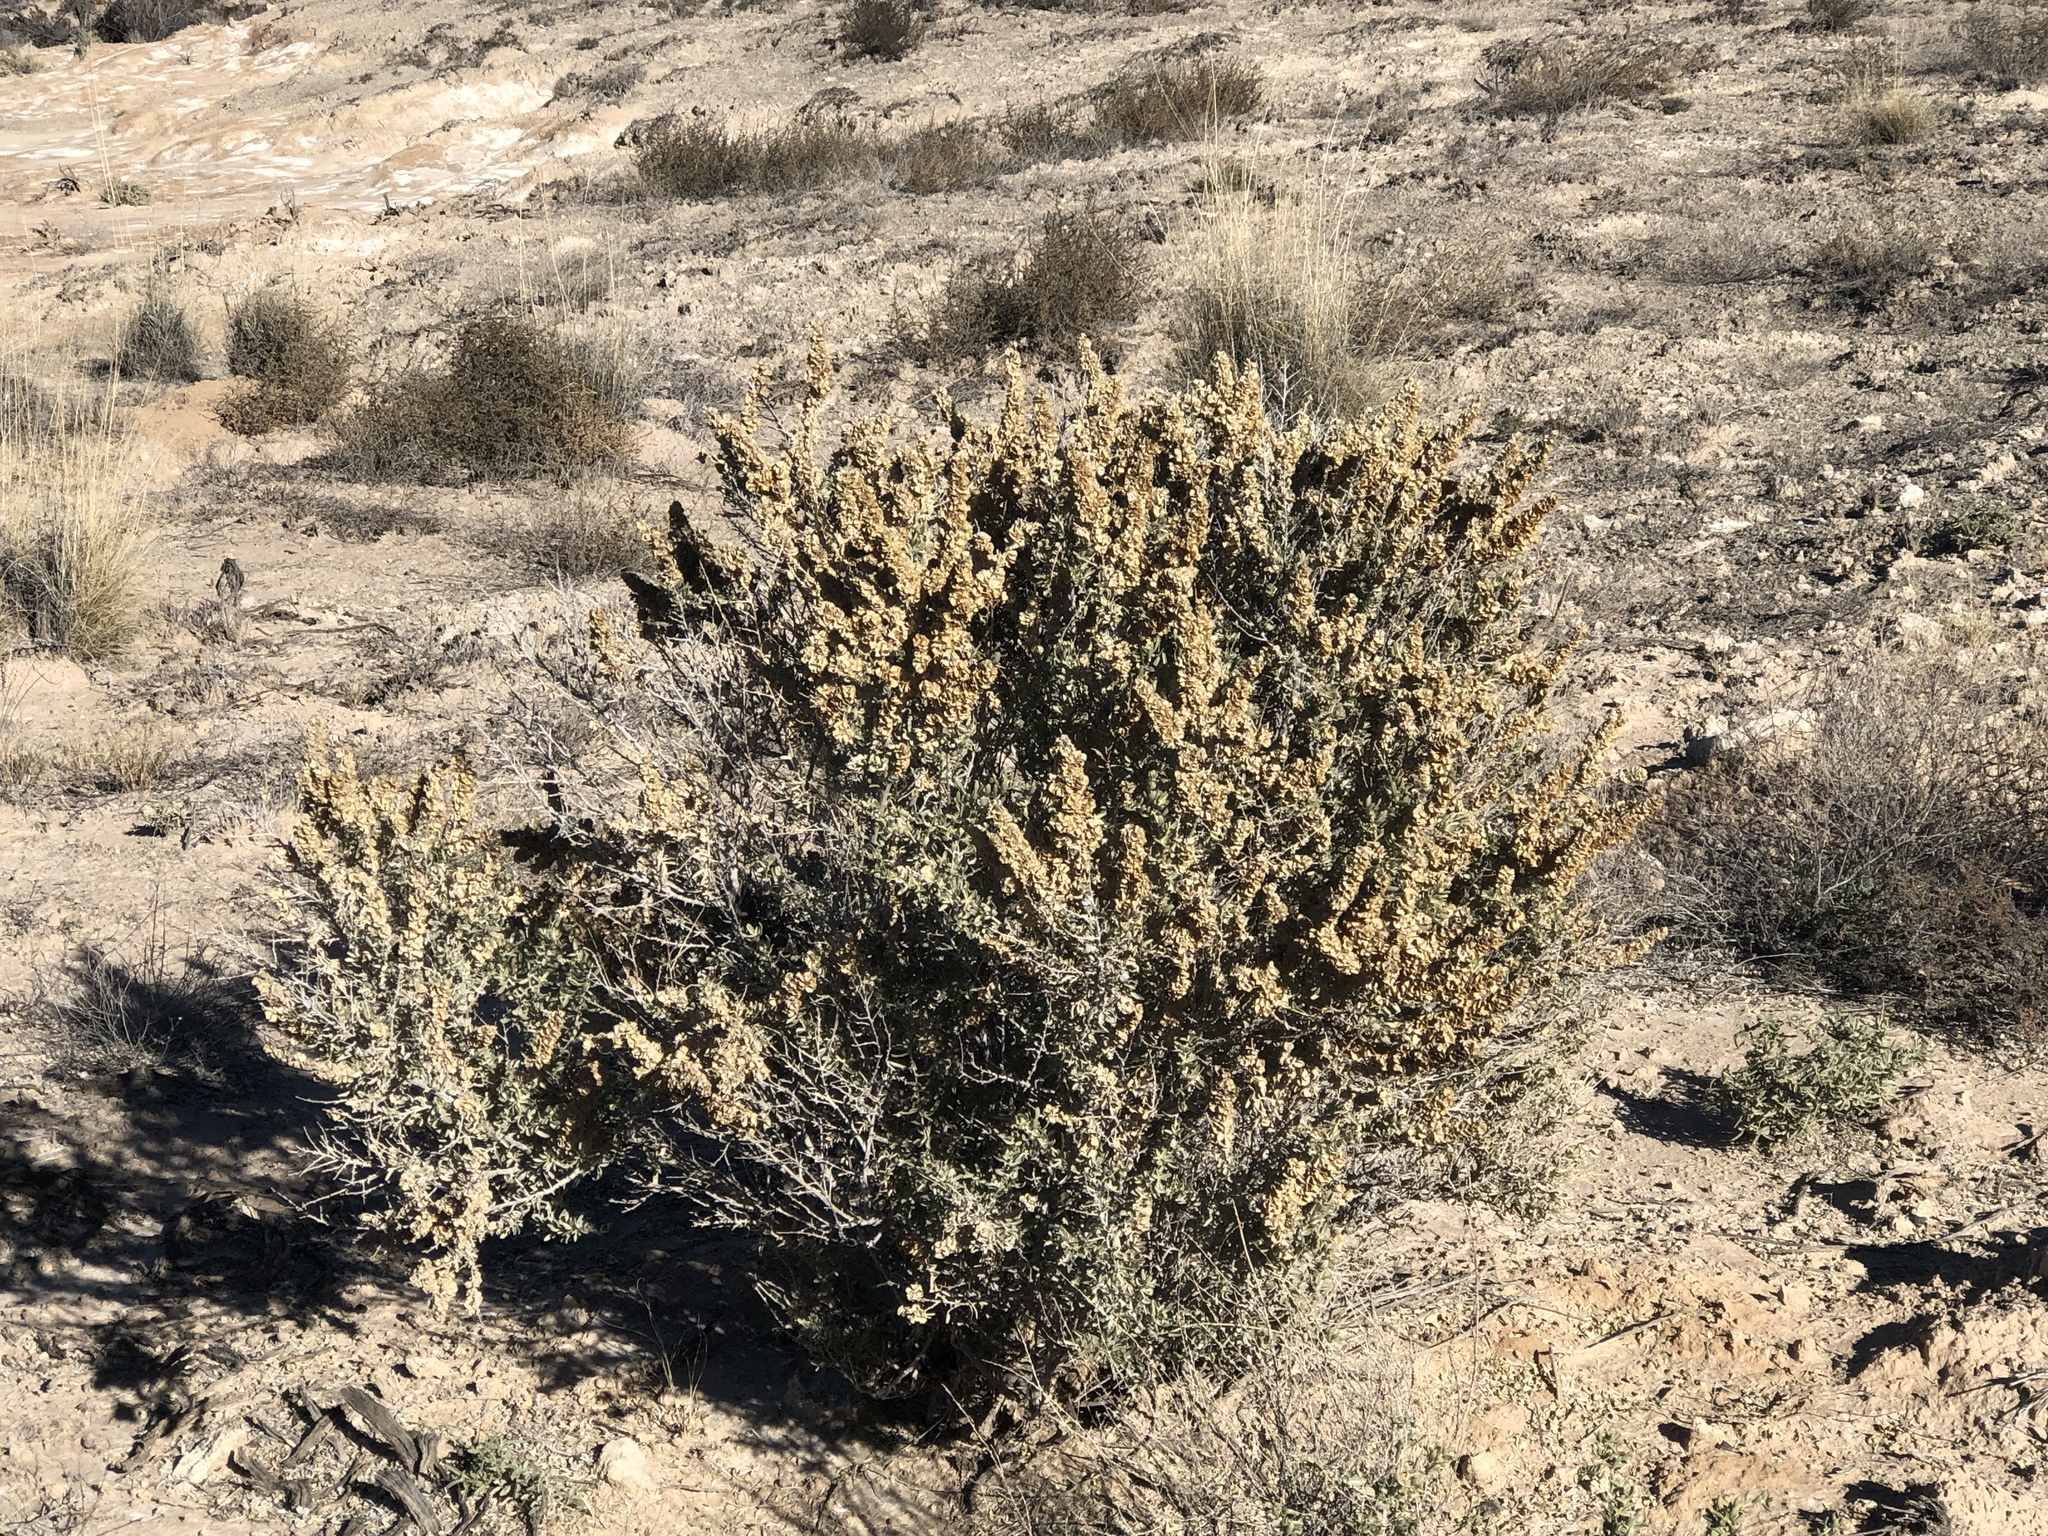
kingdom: Plantae
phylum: Tracheophyta
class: Magnoliopsida
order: Caryophyllales
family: Amaranthaceae
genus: Atriplex
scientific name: Atriplex canescens
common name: Four-wing saltbush
